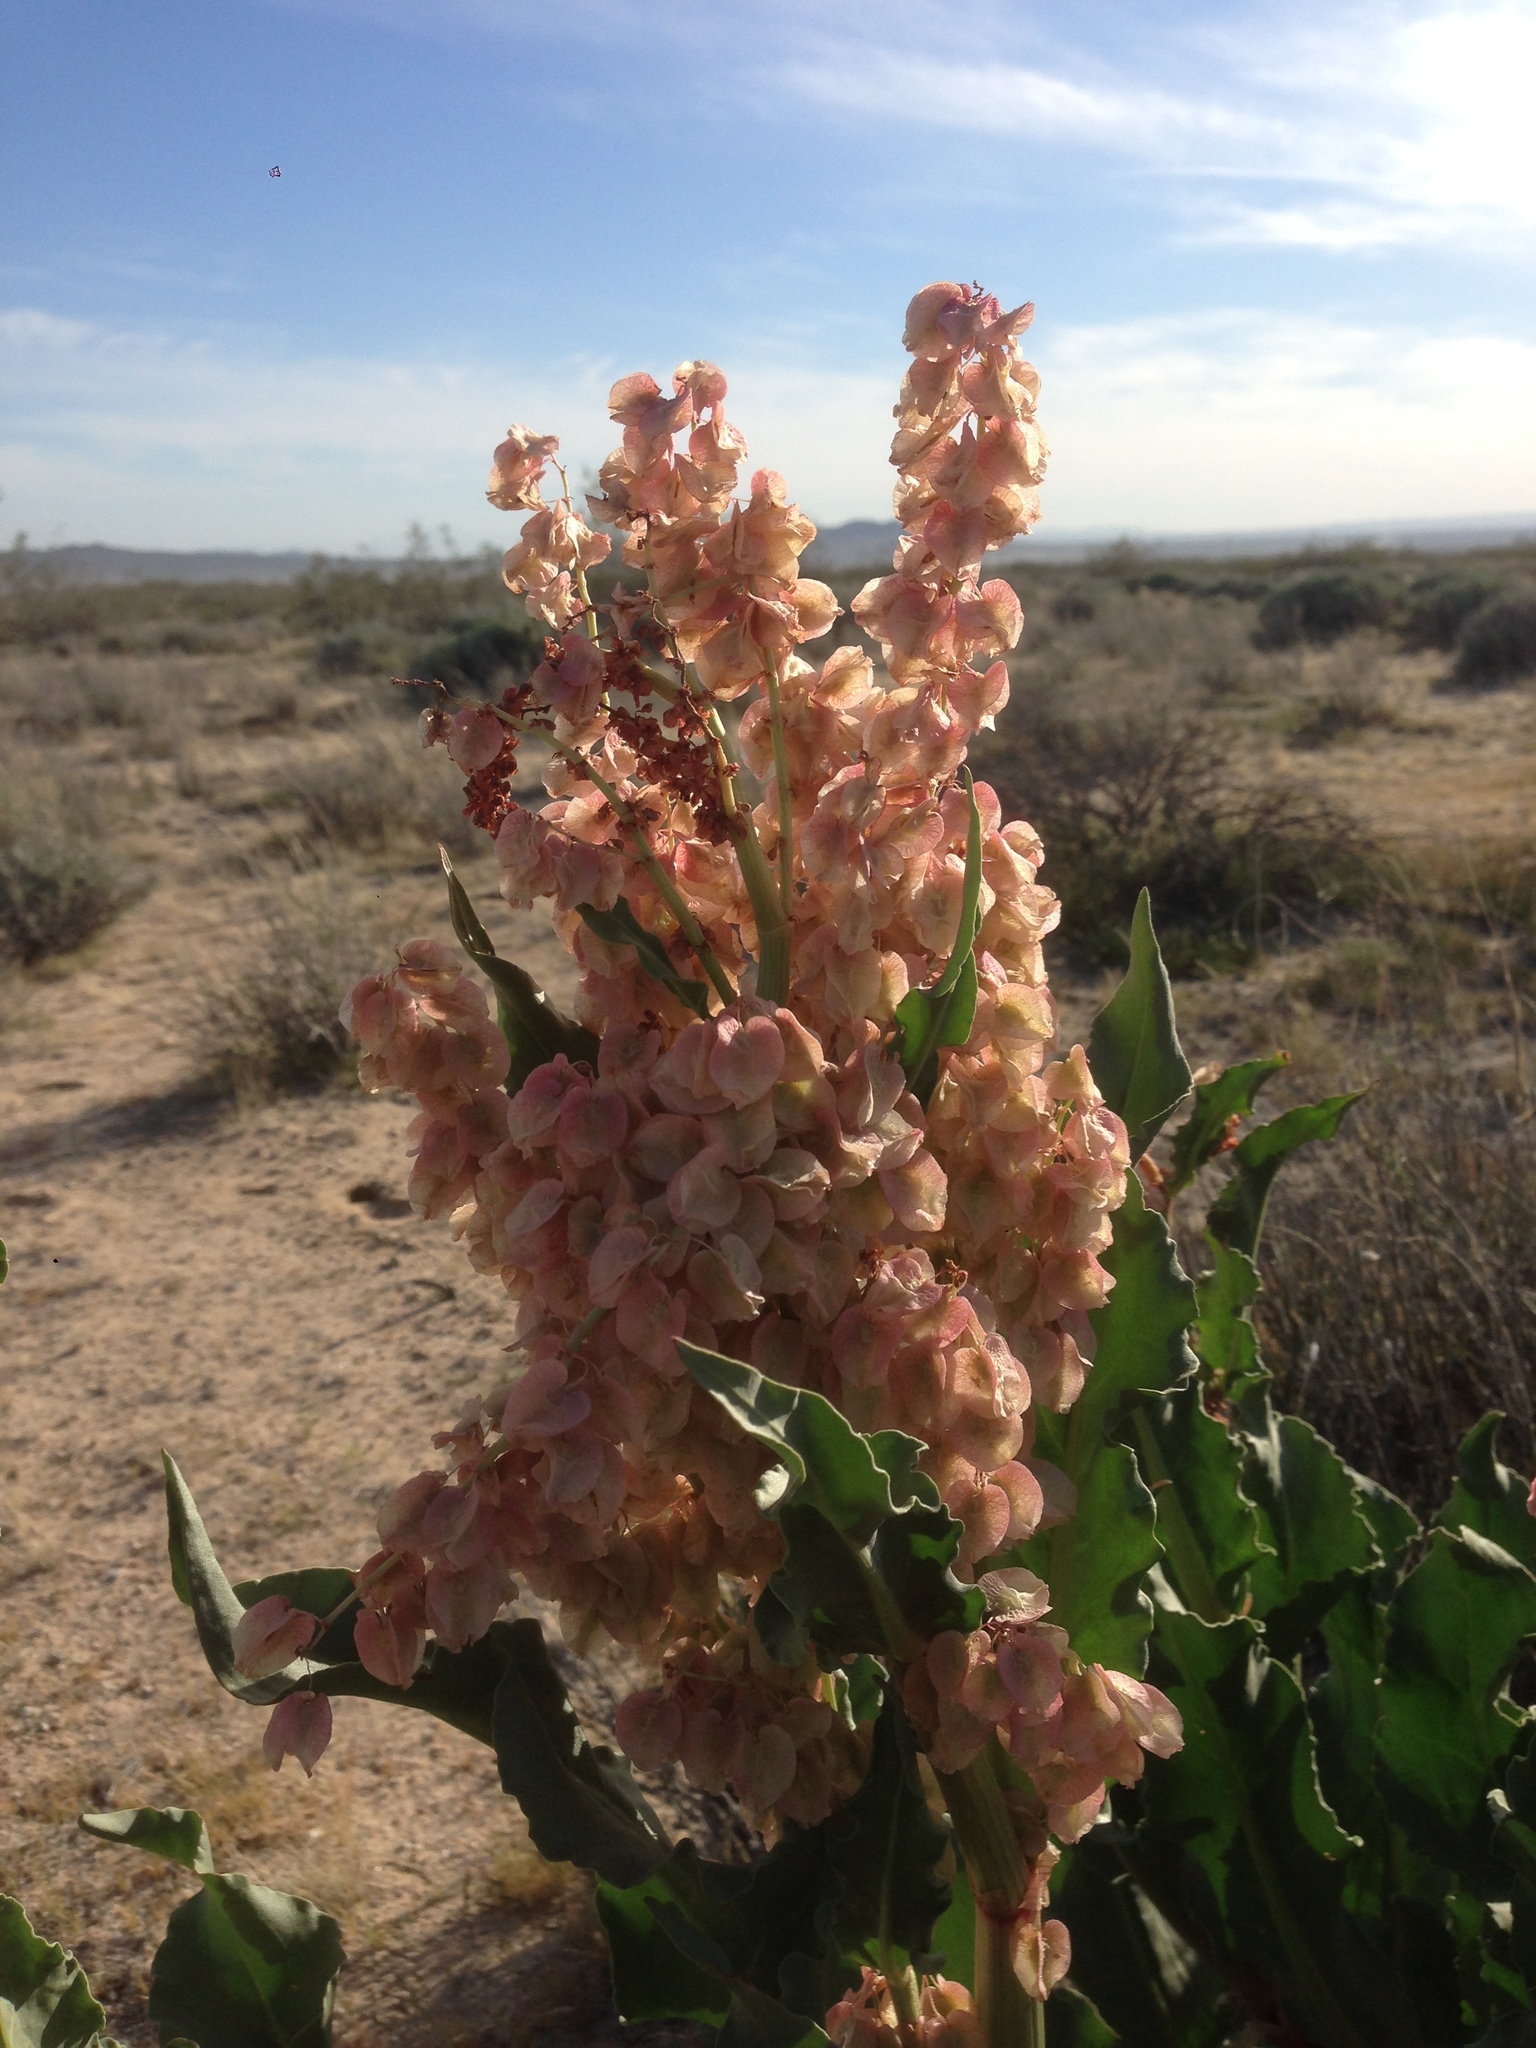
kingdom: Plantae
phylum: Tracheophyta
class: Magnoliopsida
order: Caryophyllales
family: Polygonaceae
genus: Rumex
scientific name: Rumex hymenosepalus
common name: Ganagra
